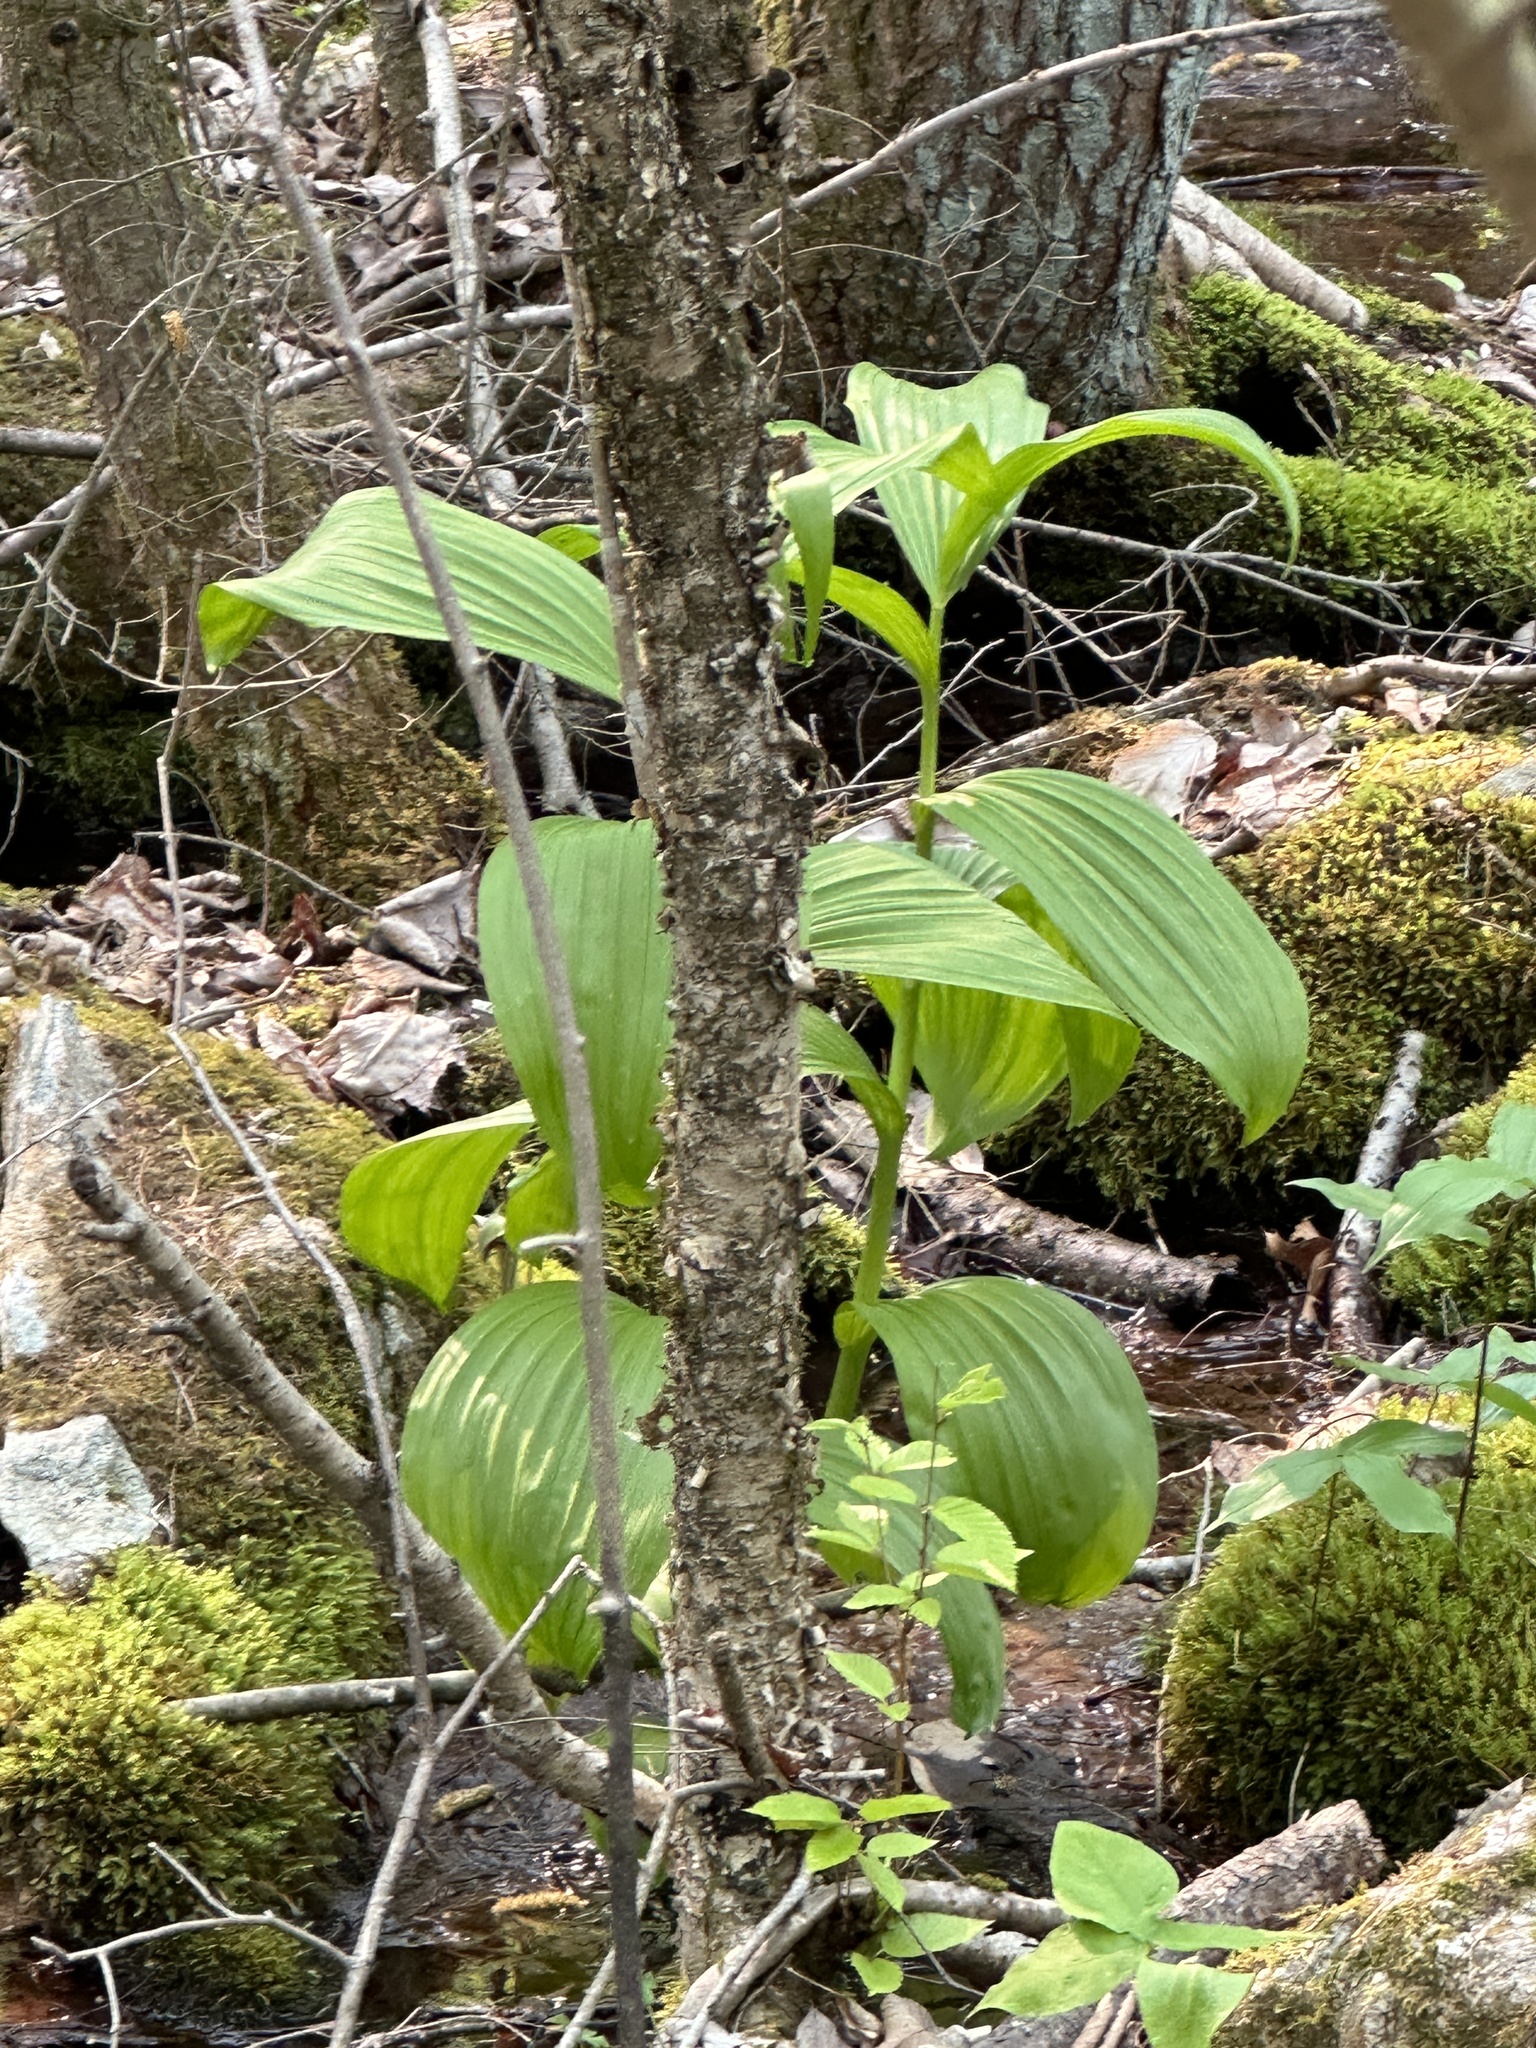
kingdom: Plantae
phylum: Tracheophyta
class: Liliopsida
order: Liliales
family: Melanthiaceae
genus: Veratrum
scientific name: Veratrum viride
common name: American false hellebore
